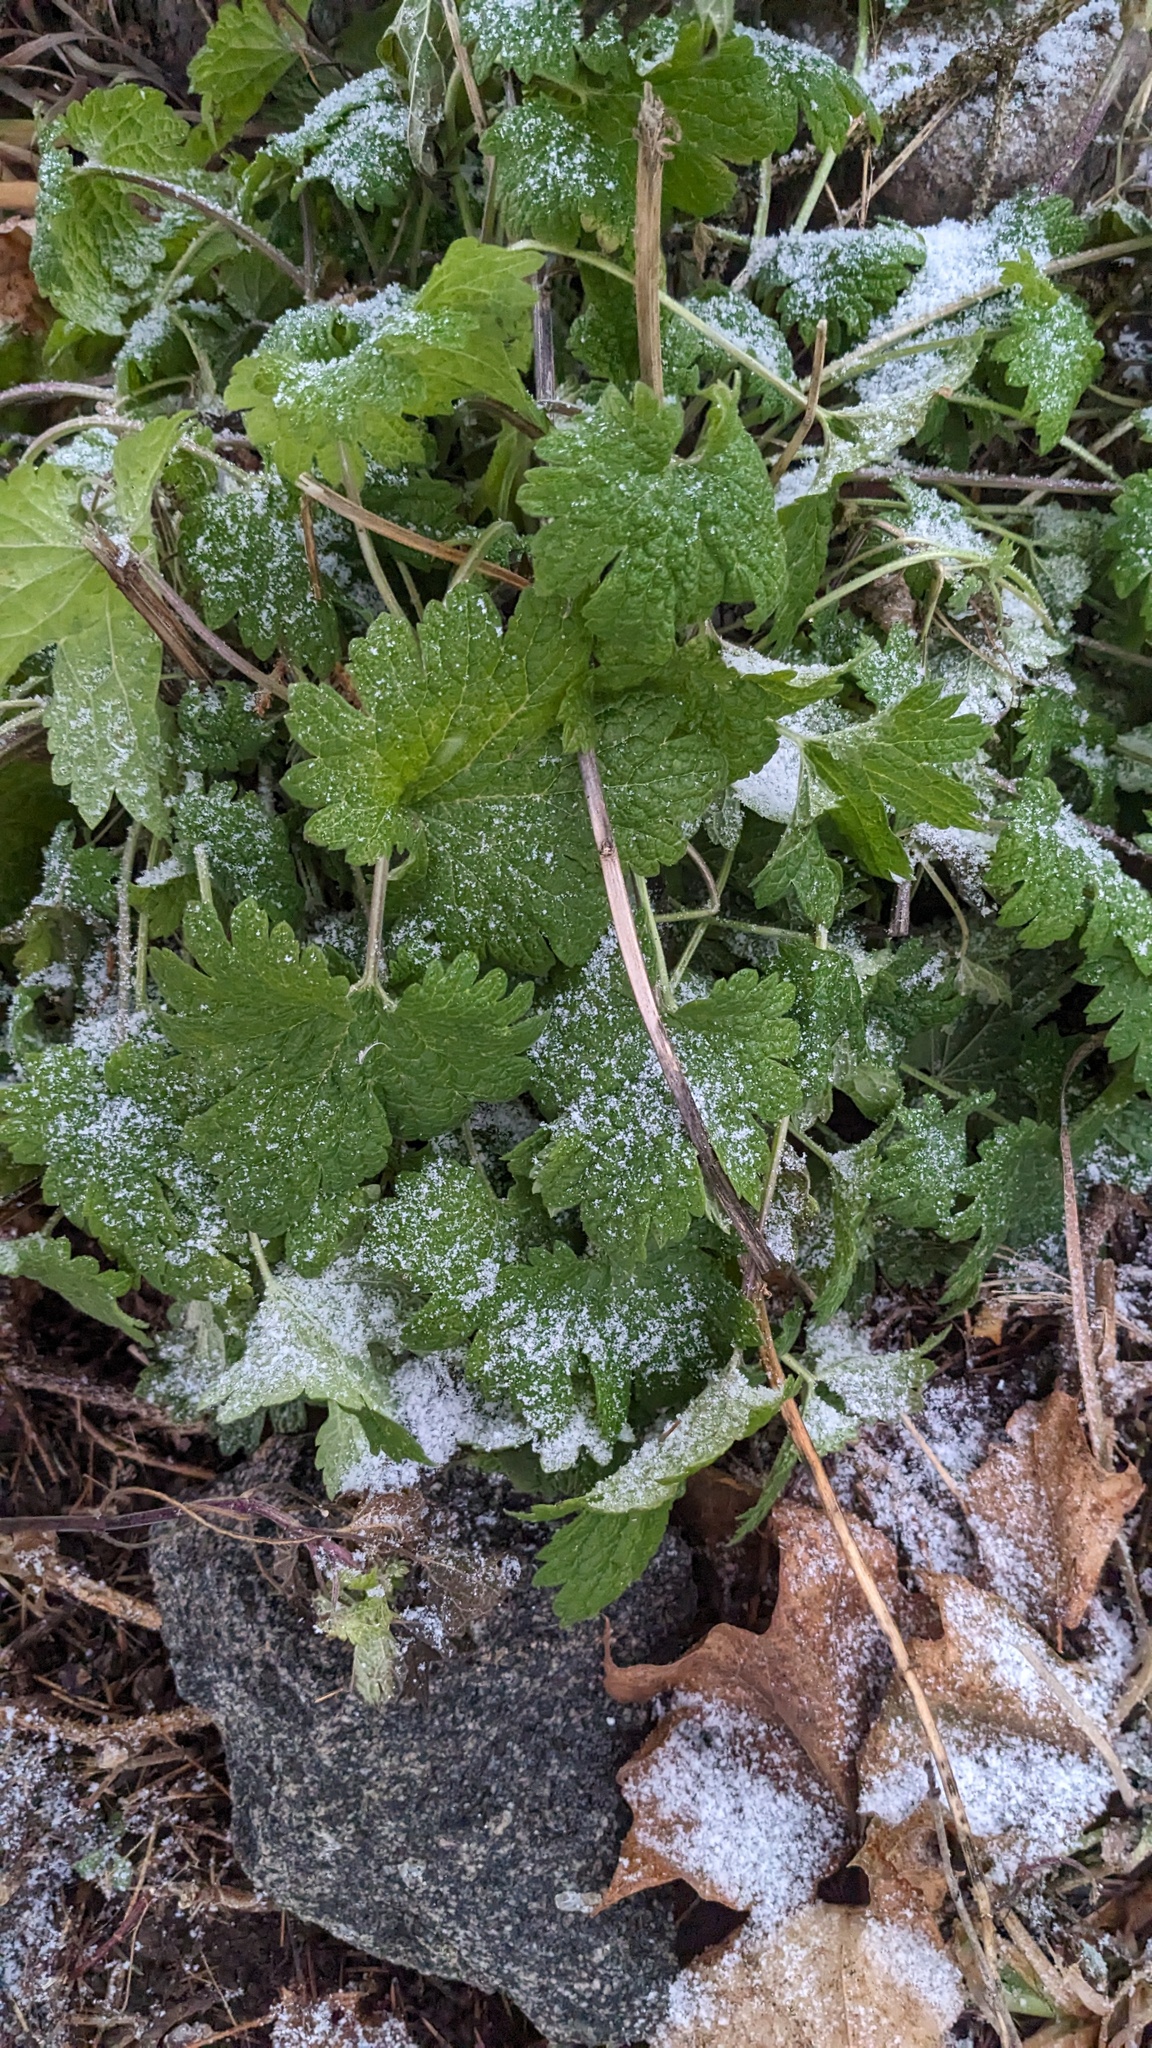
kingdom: Plantae
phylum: Tracheophyta
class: Magnoliopsida
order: Lamiales
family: Lamiaceae
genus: Leonurus
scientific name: Leonurus cardiaca
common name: Motherwort
